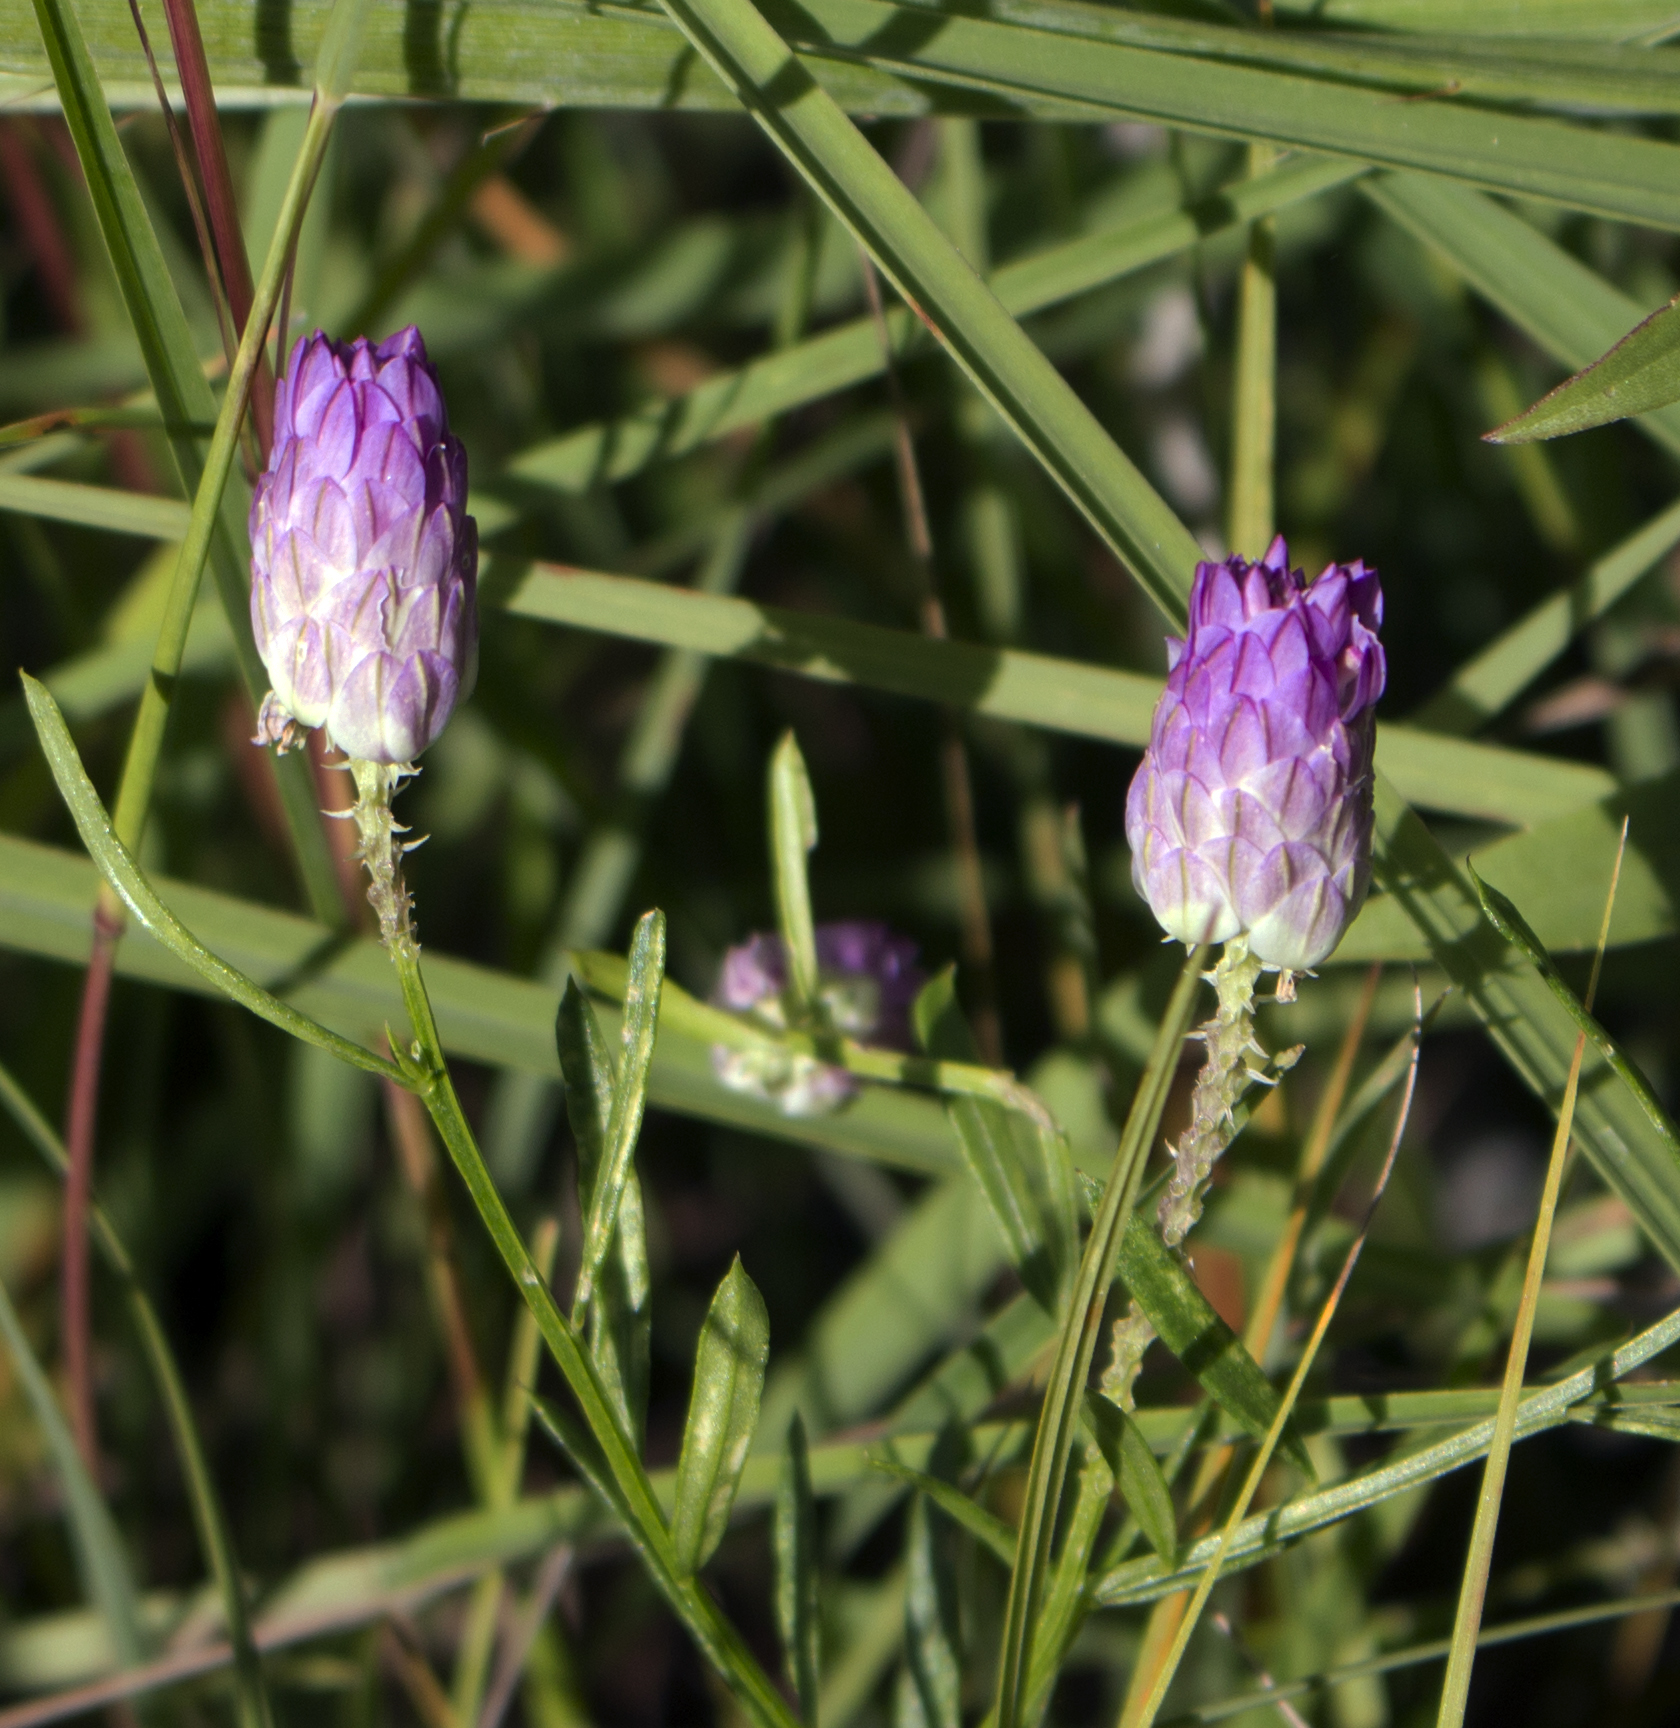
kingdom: Plantae
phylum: Tracheophyta
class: Magnoliopsida
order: Fabales
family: Polygalaceae
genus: Polygala
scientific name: Polygala sanguinea
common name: Blood milkwort
